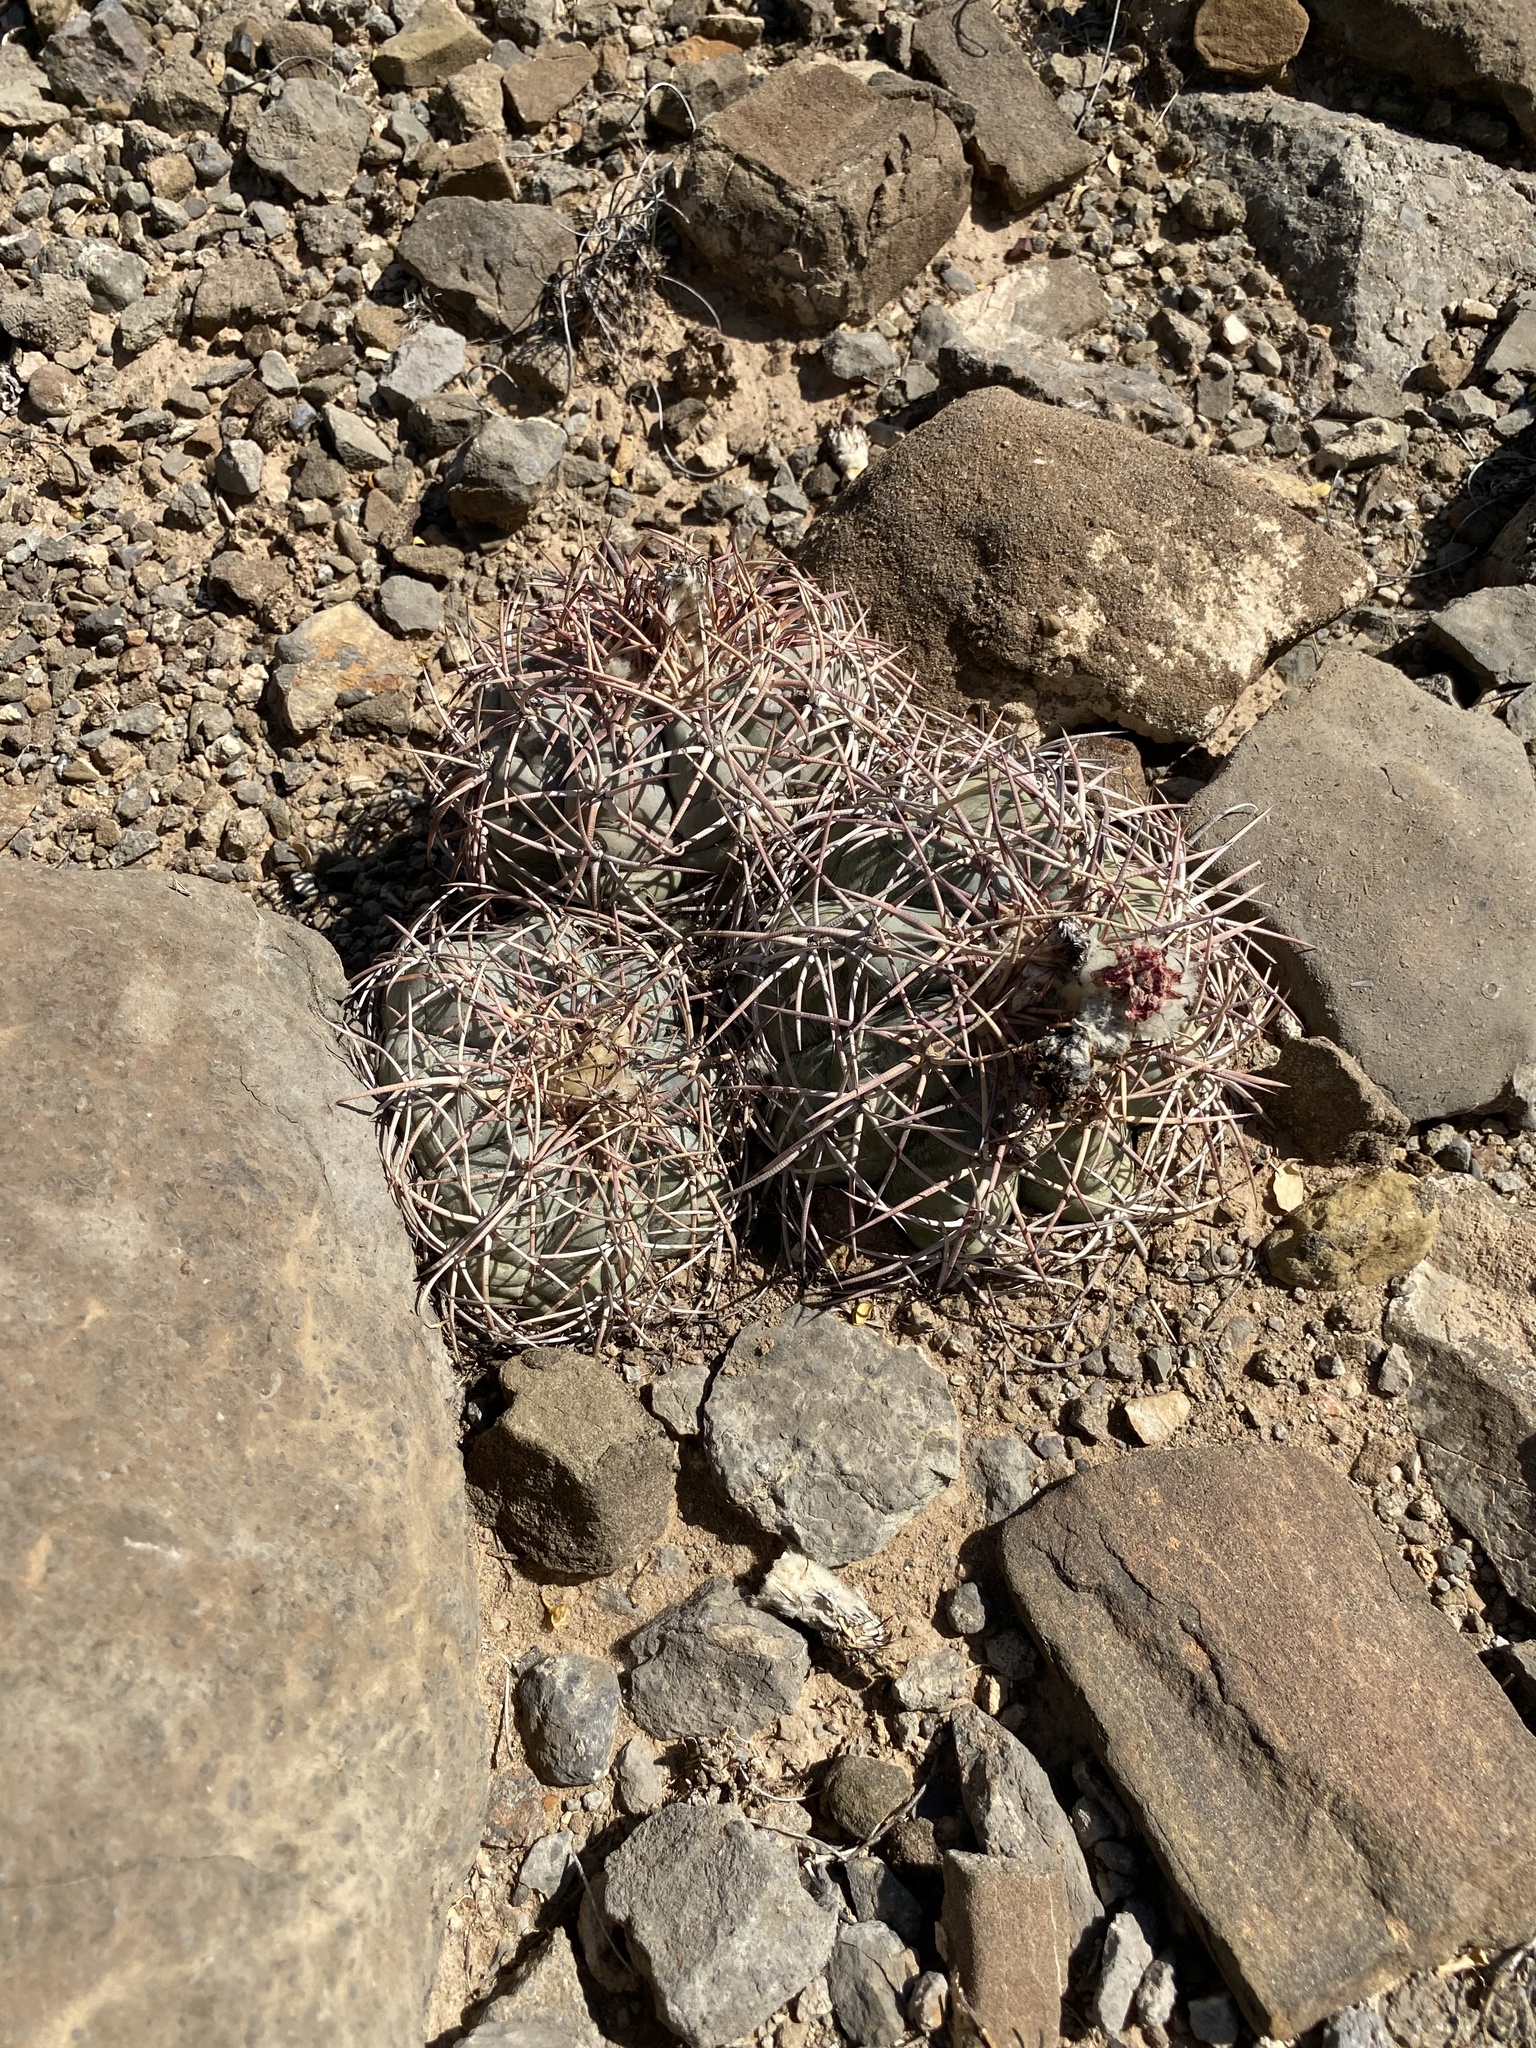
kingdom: Plantae
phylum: Tracheophyta
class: Magnoliopsida
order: Caryophyllales
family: Cactaceae
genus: Echinocactus
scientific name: Echinocactus horizonthalonius
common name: Devilshead
